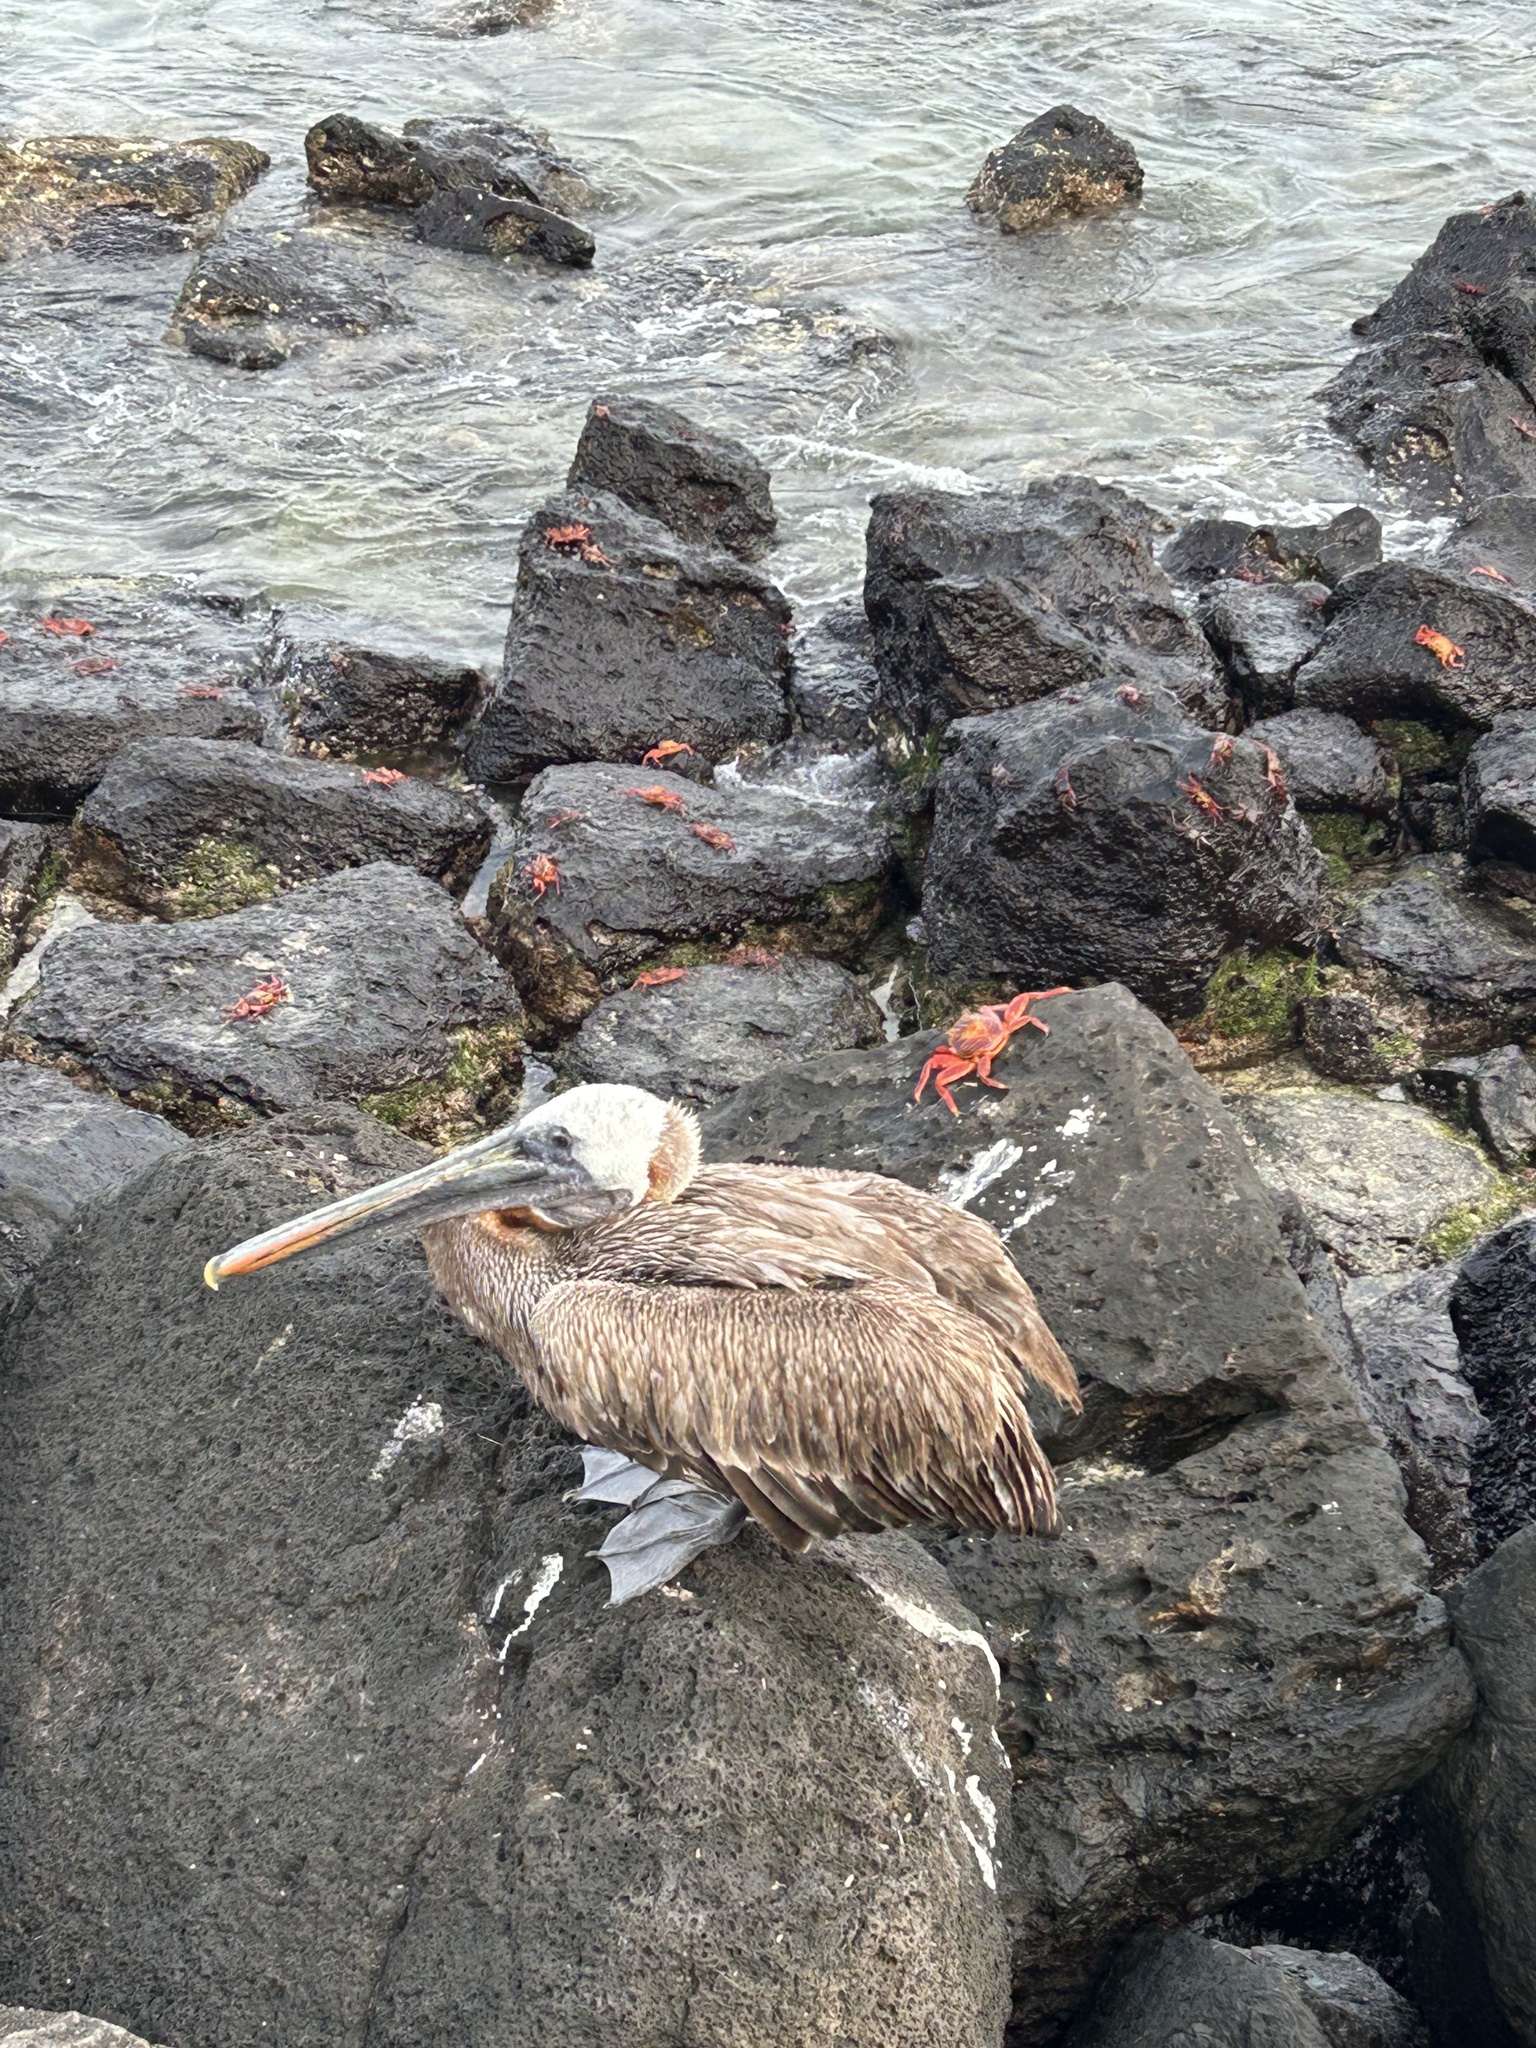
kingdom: Animalia
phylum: Chordata
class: Aves
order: Pelecaniformes
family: Pelecanidae
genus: Pelecanus
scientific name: Pelecanus occidentalis
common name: Brown pelican
